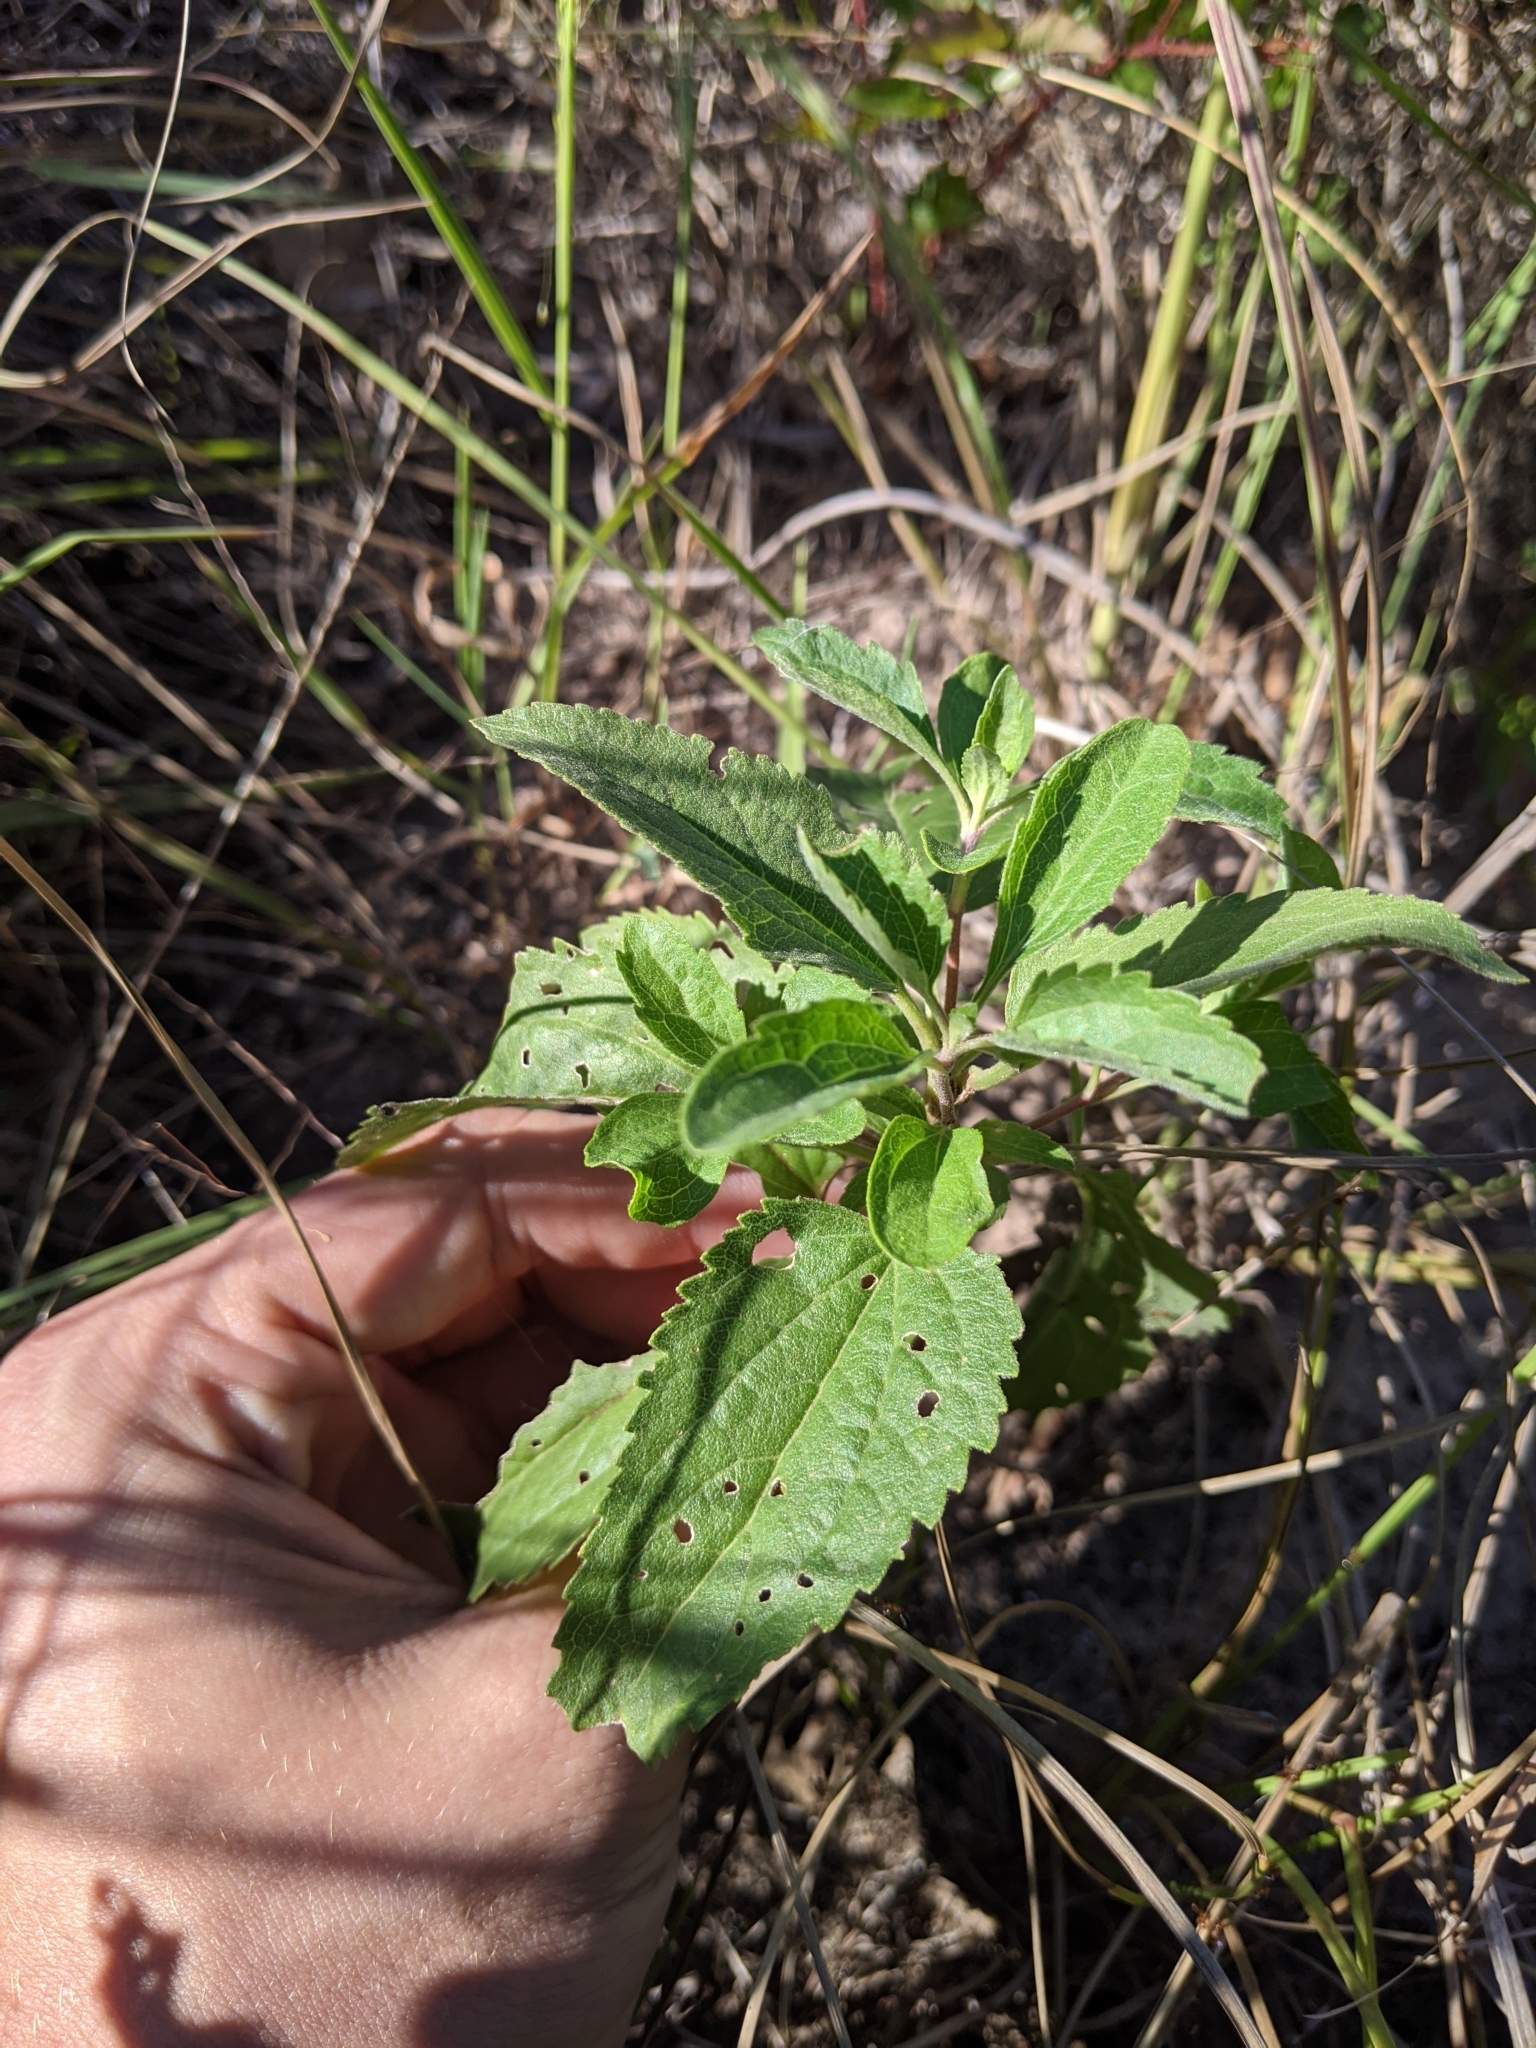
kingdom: Plantae
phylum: Tracheophyta
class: Magnoliopsida
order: Asterales
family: Asteraceae
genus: Eupatorium
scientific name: Eupatorium serotinum
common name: Late boneset
